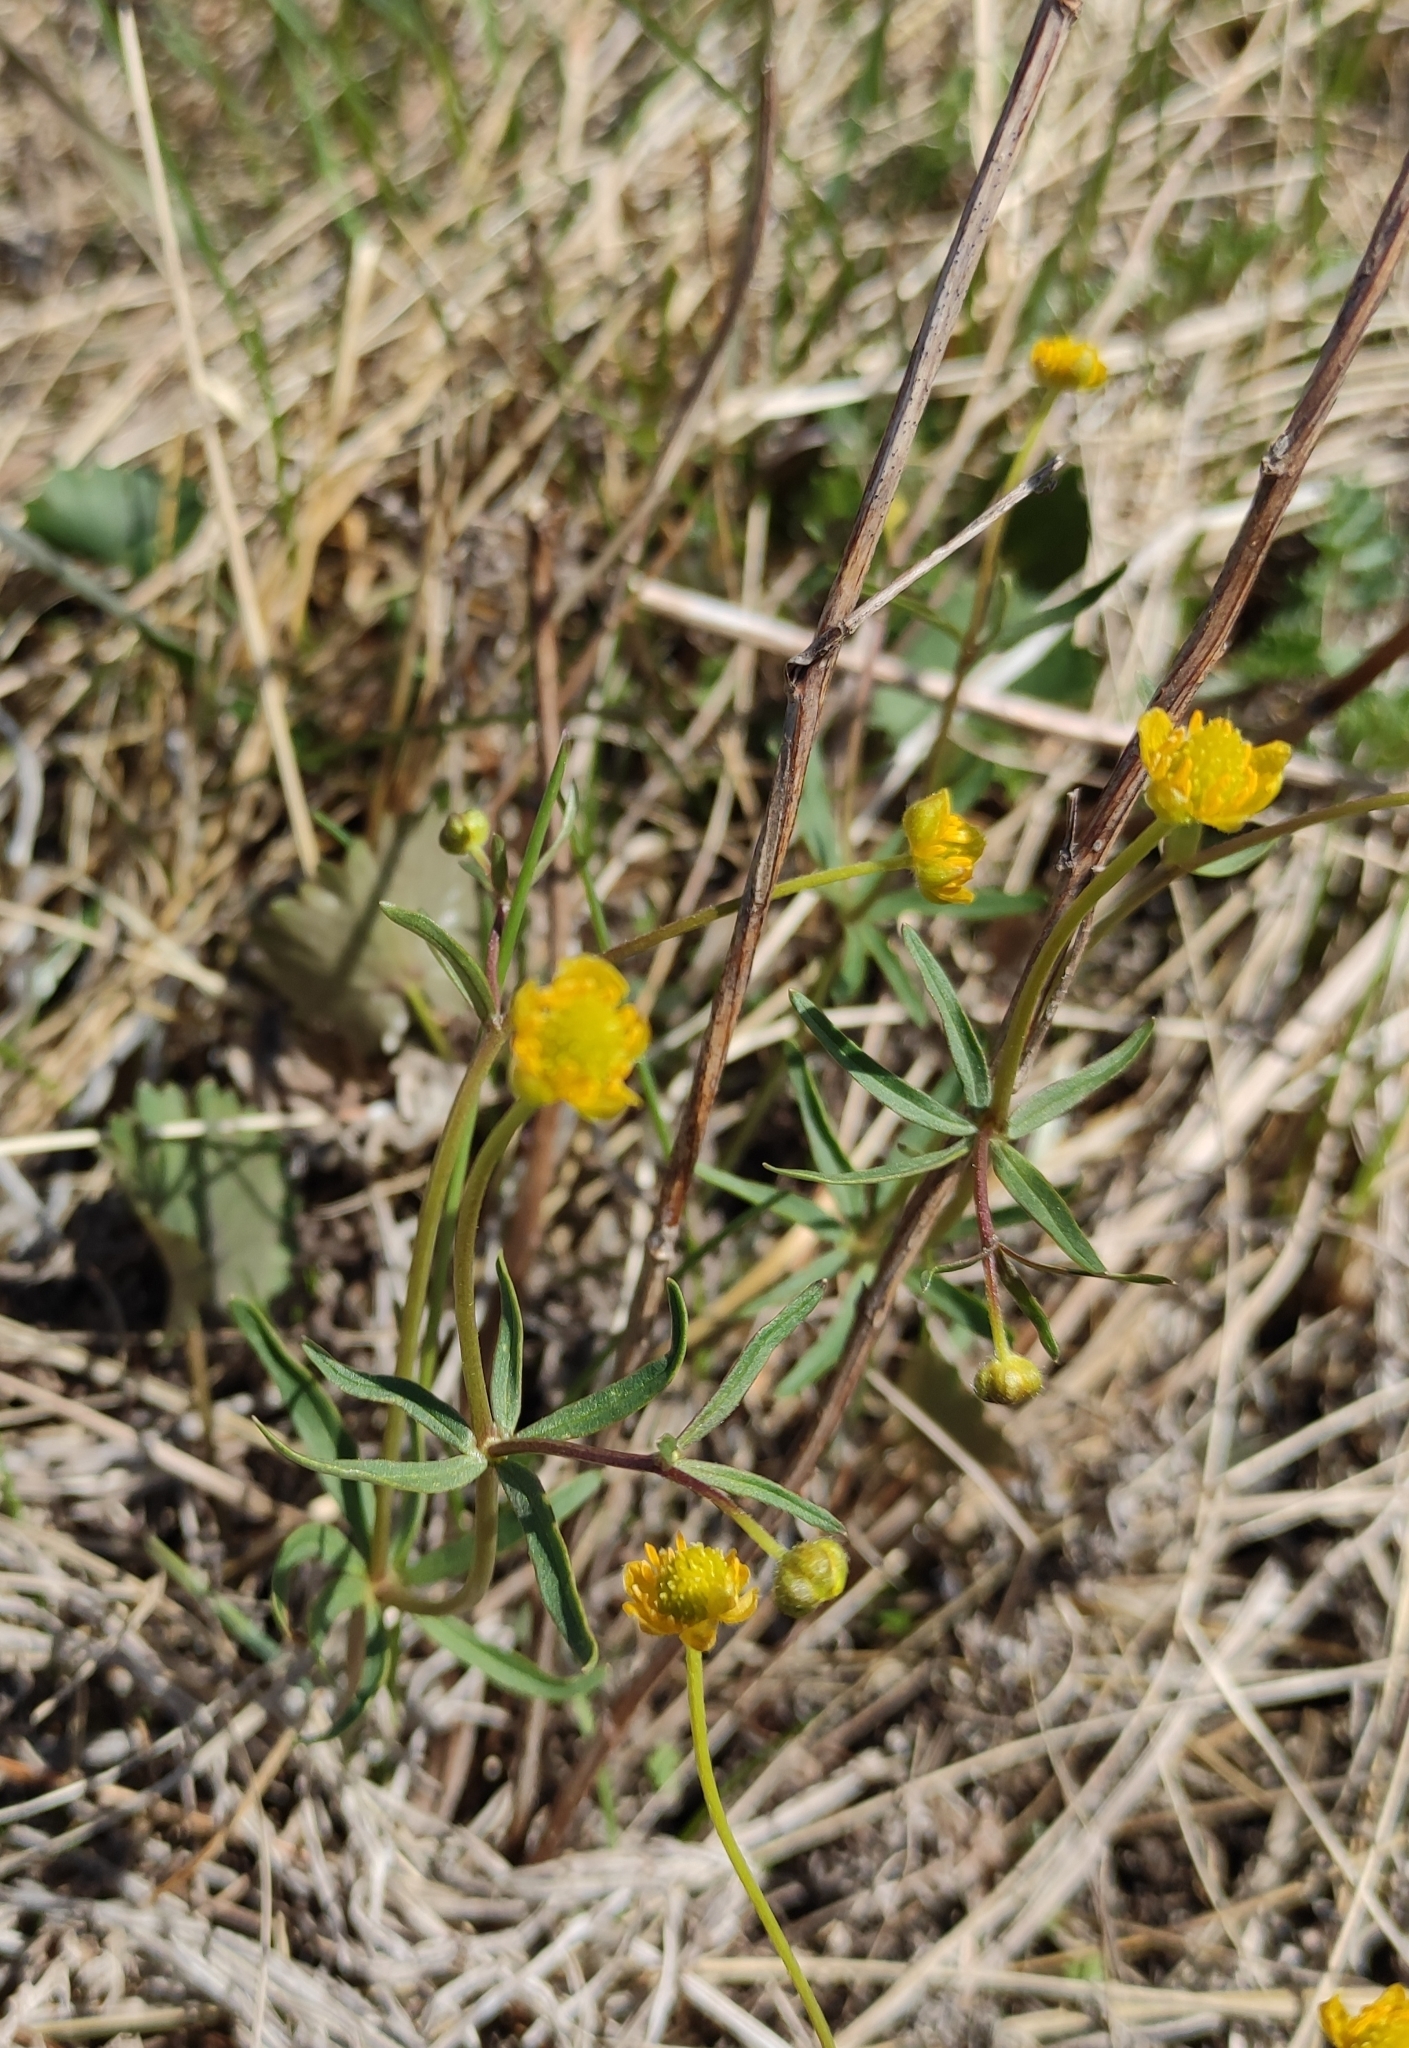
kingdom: Plantae
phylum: Tracheophyta
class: Magnoliopsida
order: Ranunculales
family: Ranunculaceae
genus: Ranunculus
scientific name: Ranunculus monophyllus
